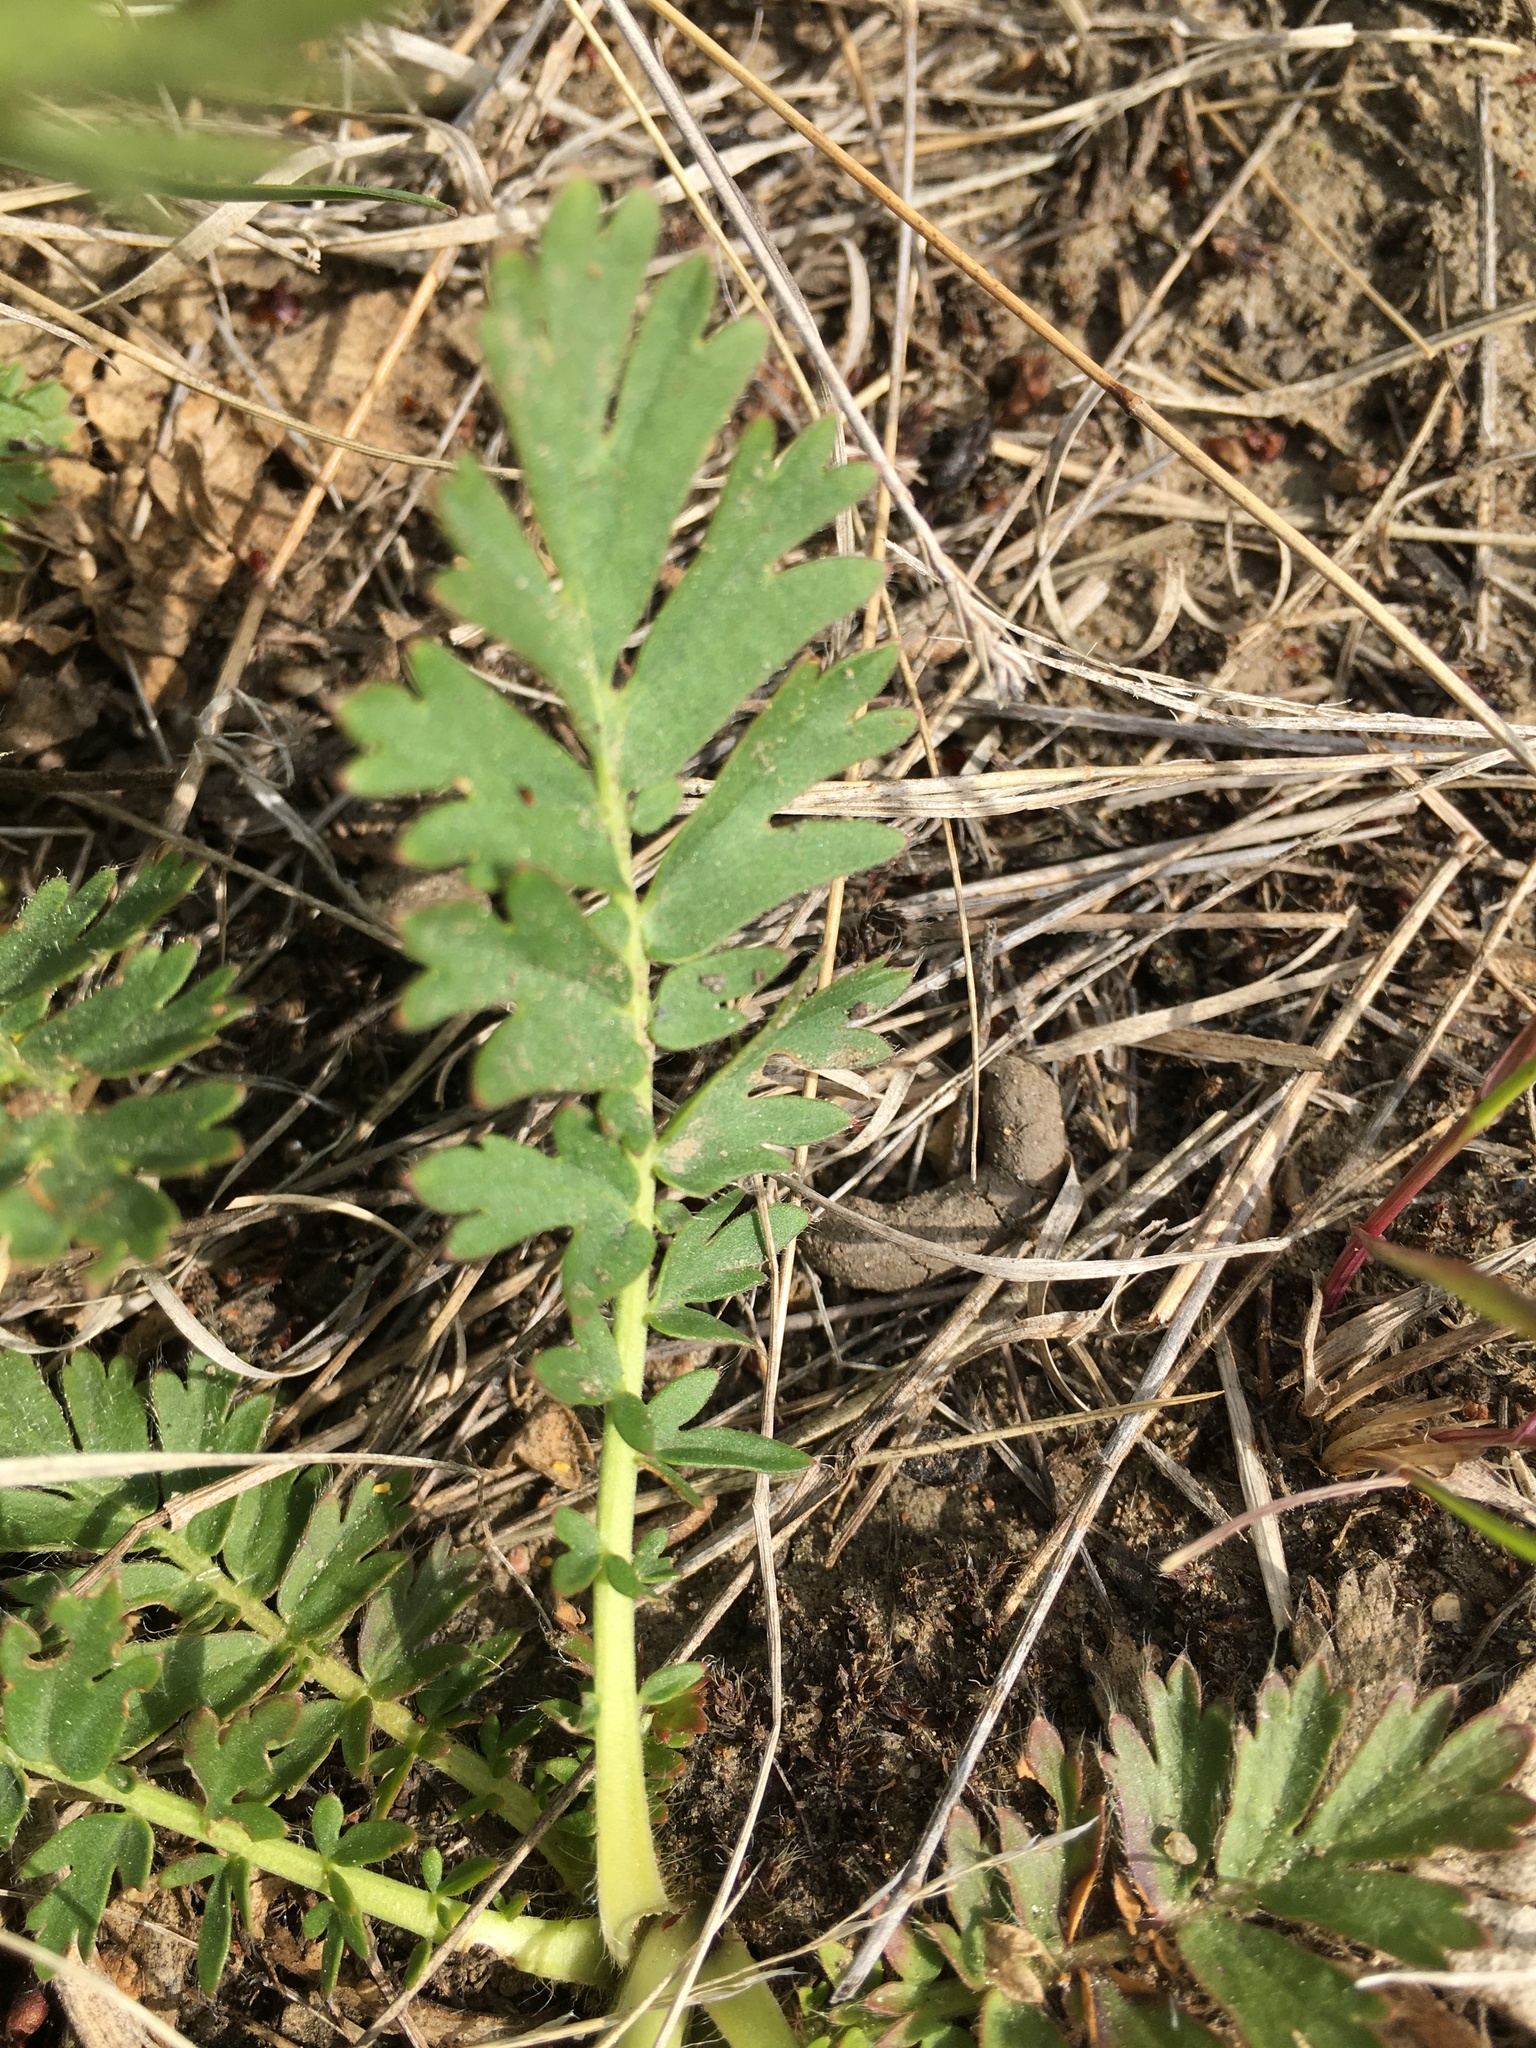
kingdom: Plantae
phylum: Tracheophyta
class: Magnoliopsida
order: Rosales
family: Rosaceae
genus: Geum
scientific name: Geum triflorum
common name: Old man's whiskers
